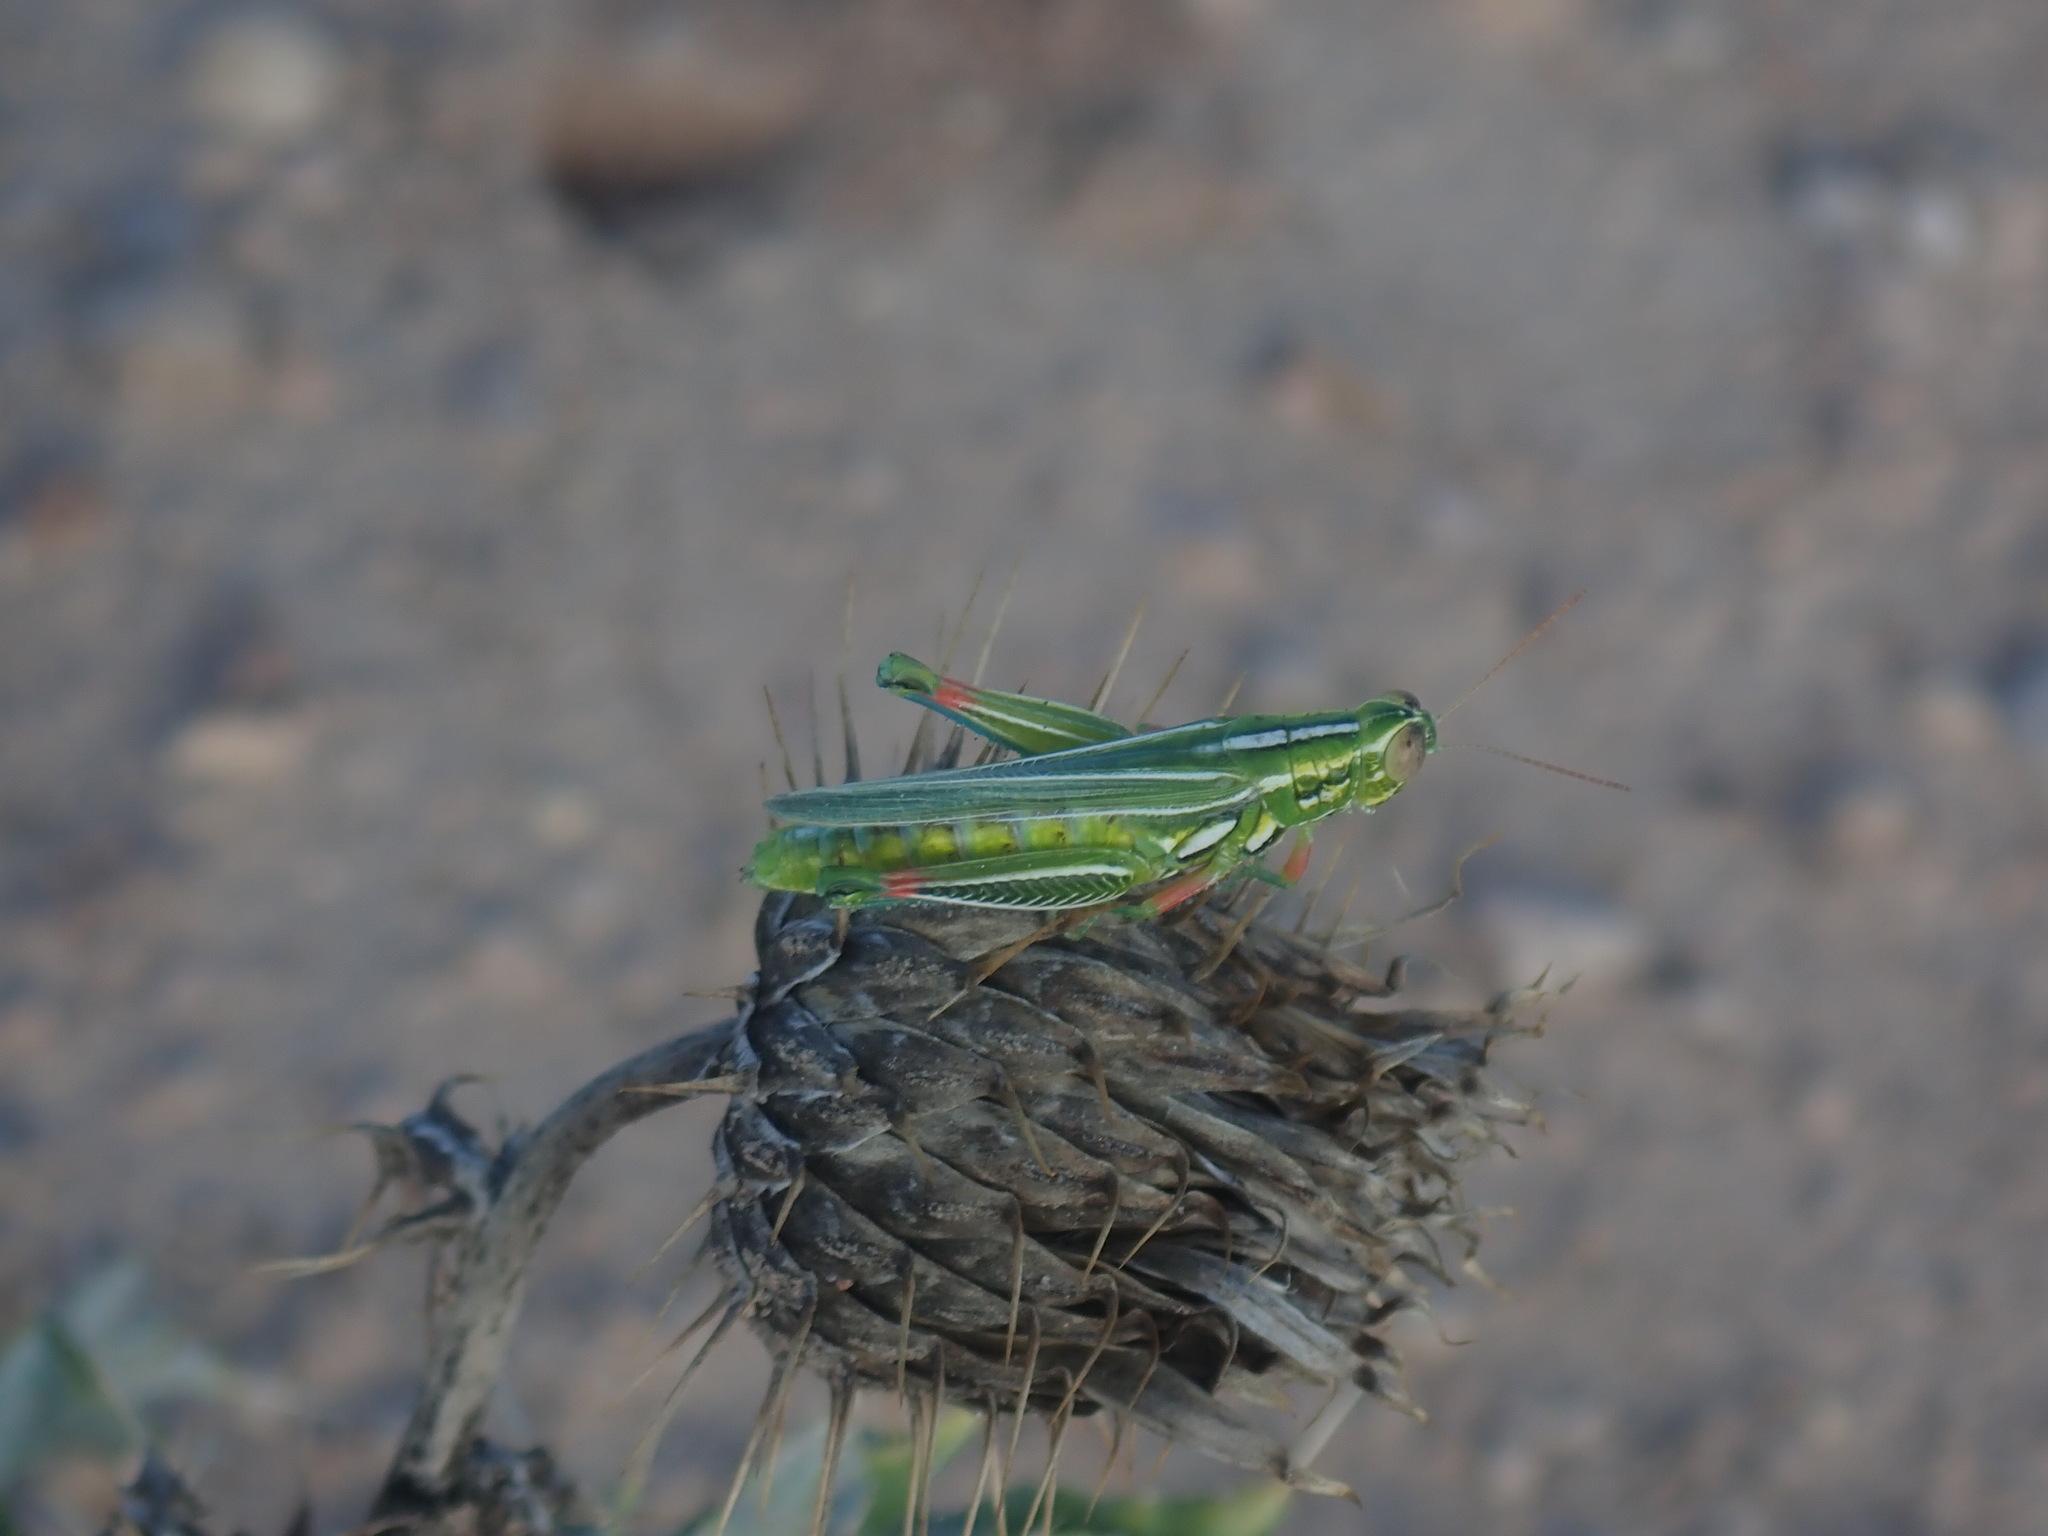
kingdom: Animalia
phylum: Arthropoda
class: Insecta
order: Orthoptera
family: Acrididae
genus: Hesperotettix
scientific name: Hesperotettix viridis
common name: Meadow purple-striped grasshopper
